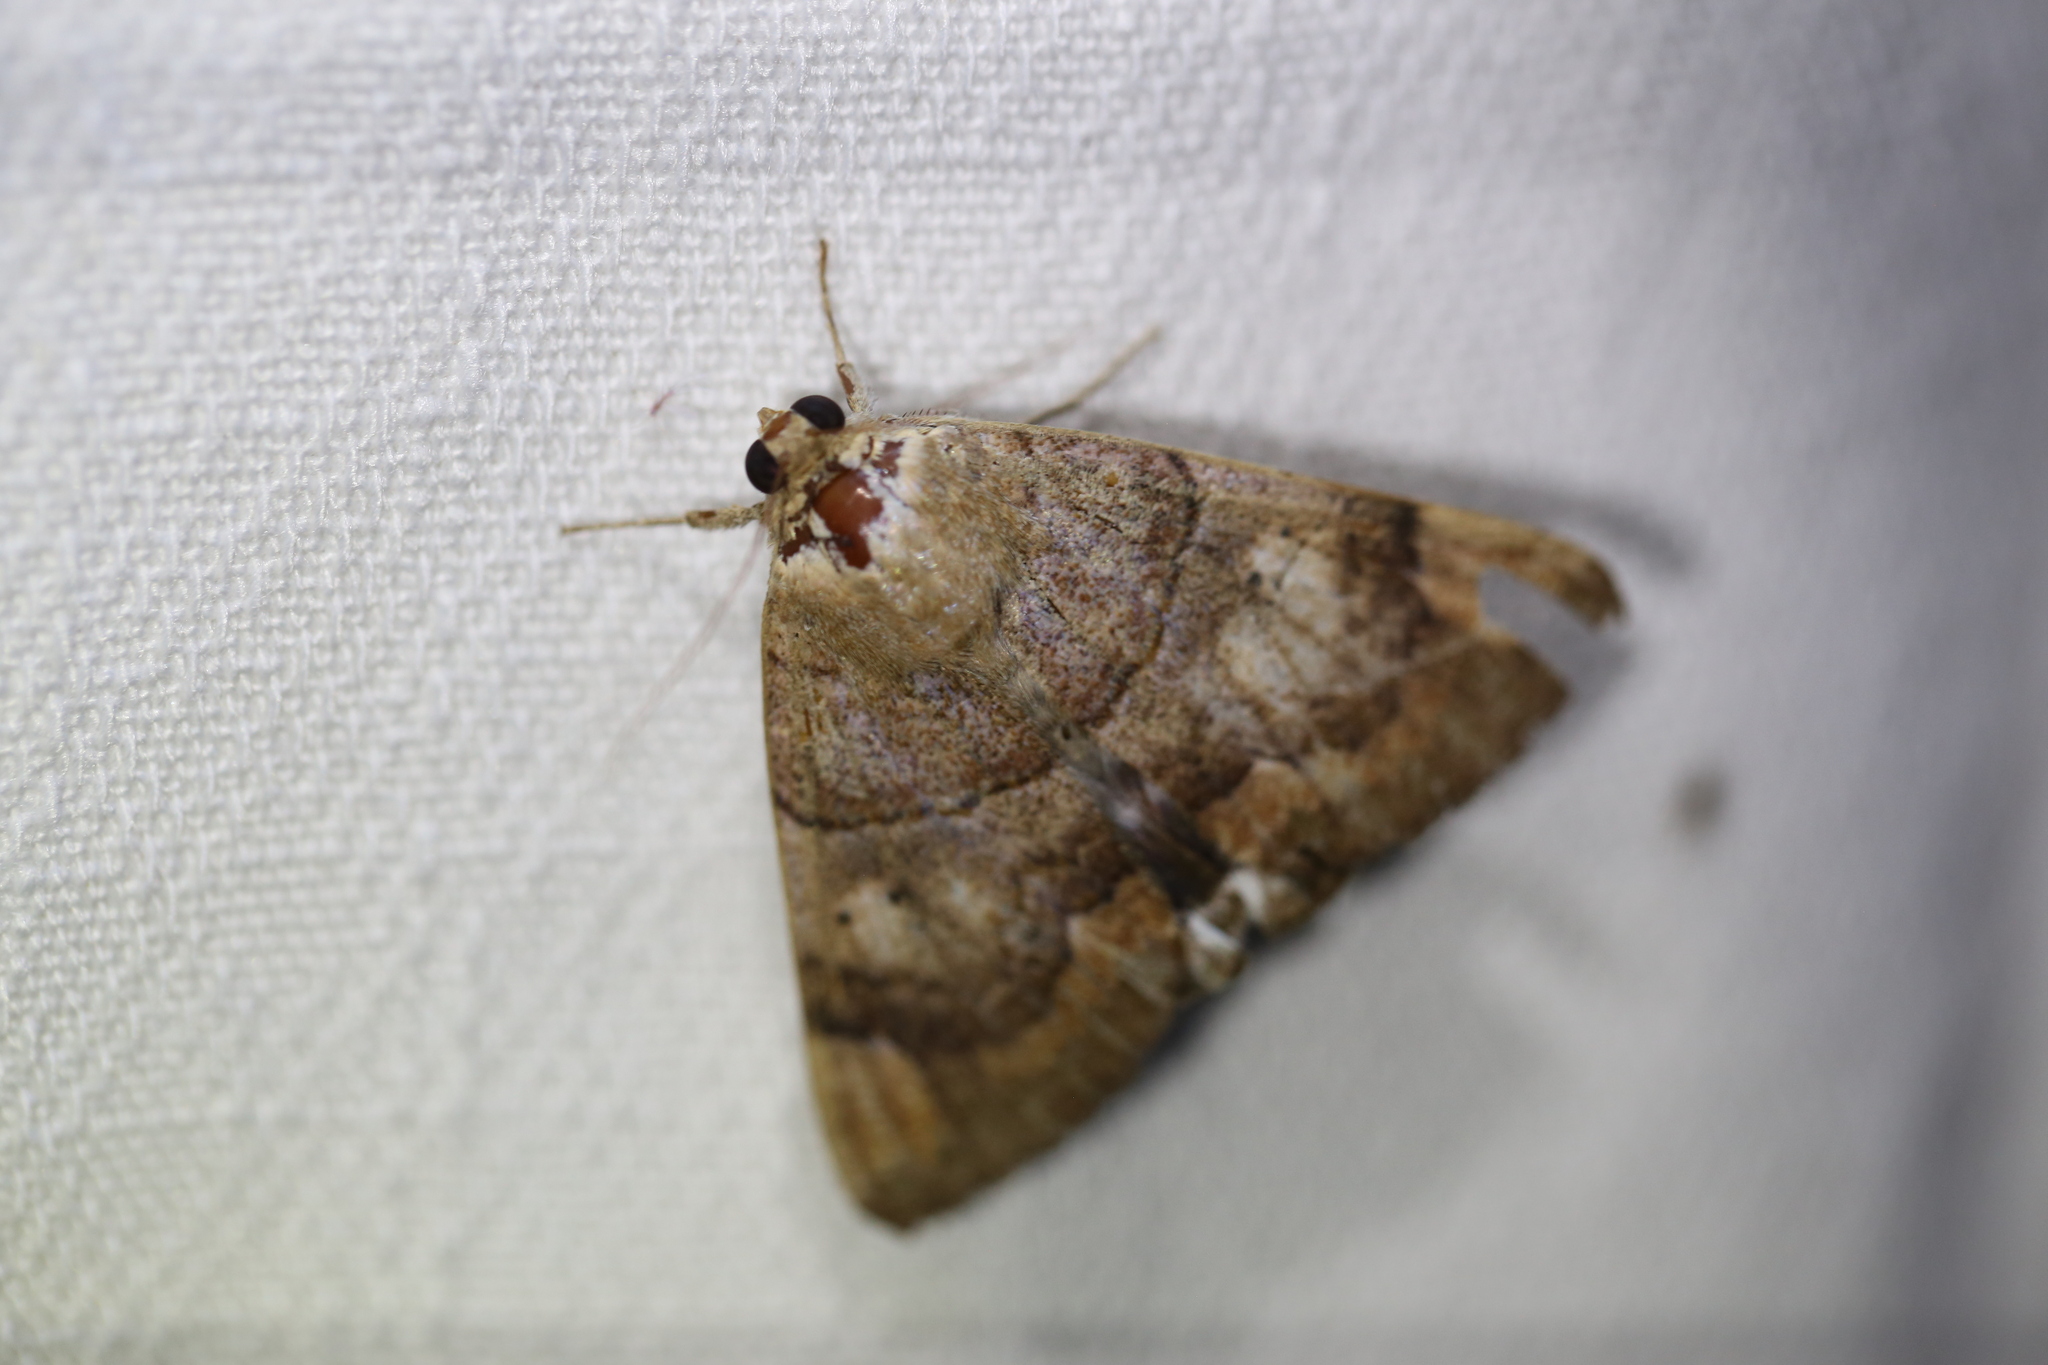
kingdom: Animalia
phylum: Arthropoda
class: Insecta
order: Lepidoptera
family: Erebidae
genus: Achaea
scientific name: Achaea janata
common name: Croton caterpillar
